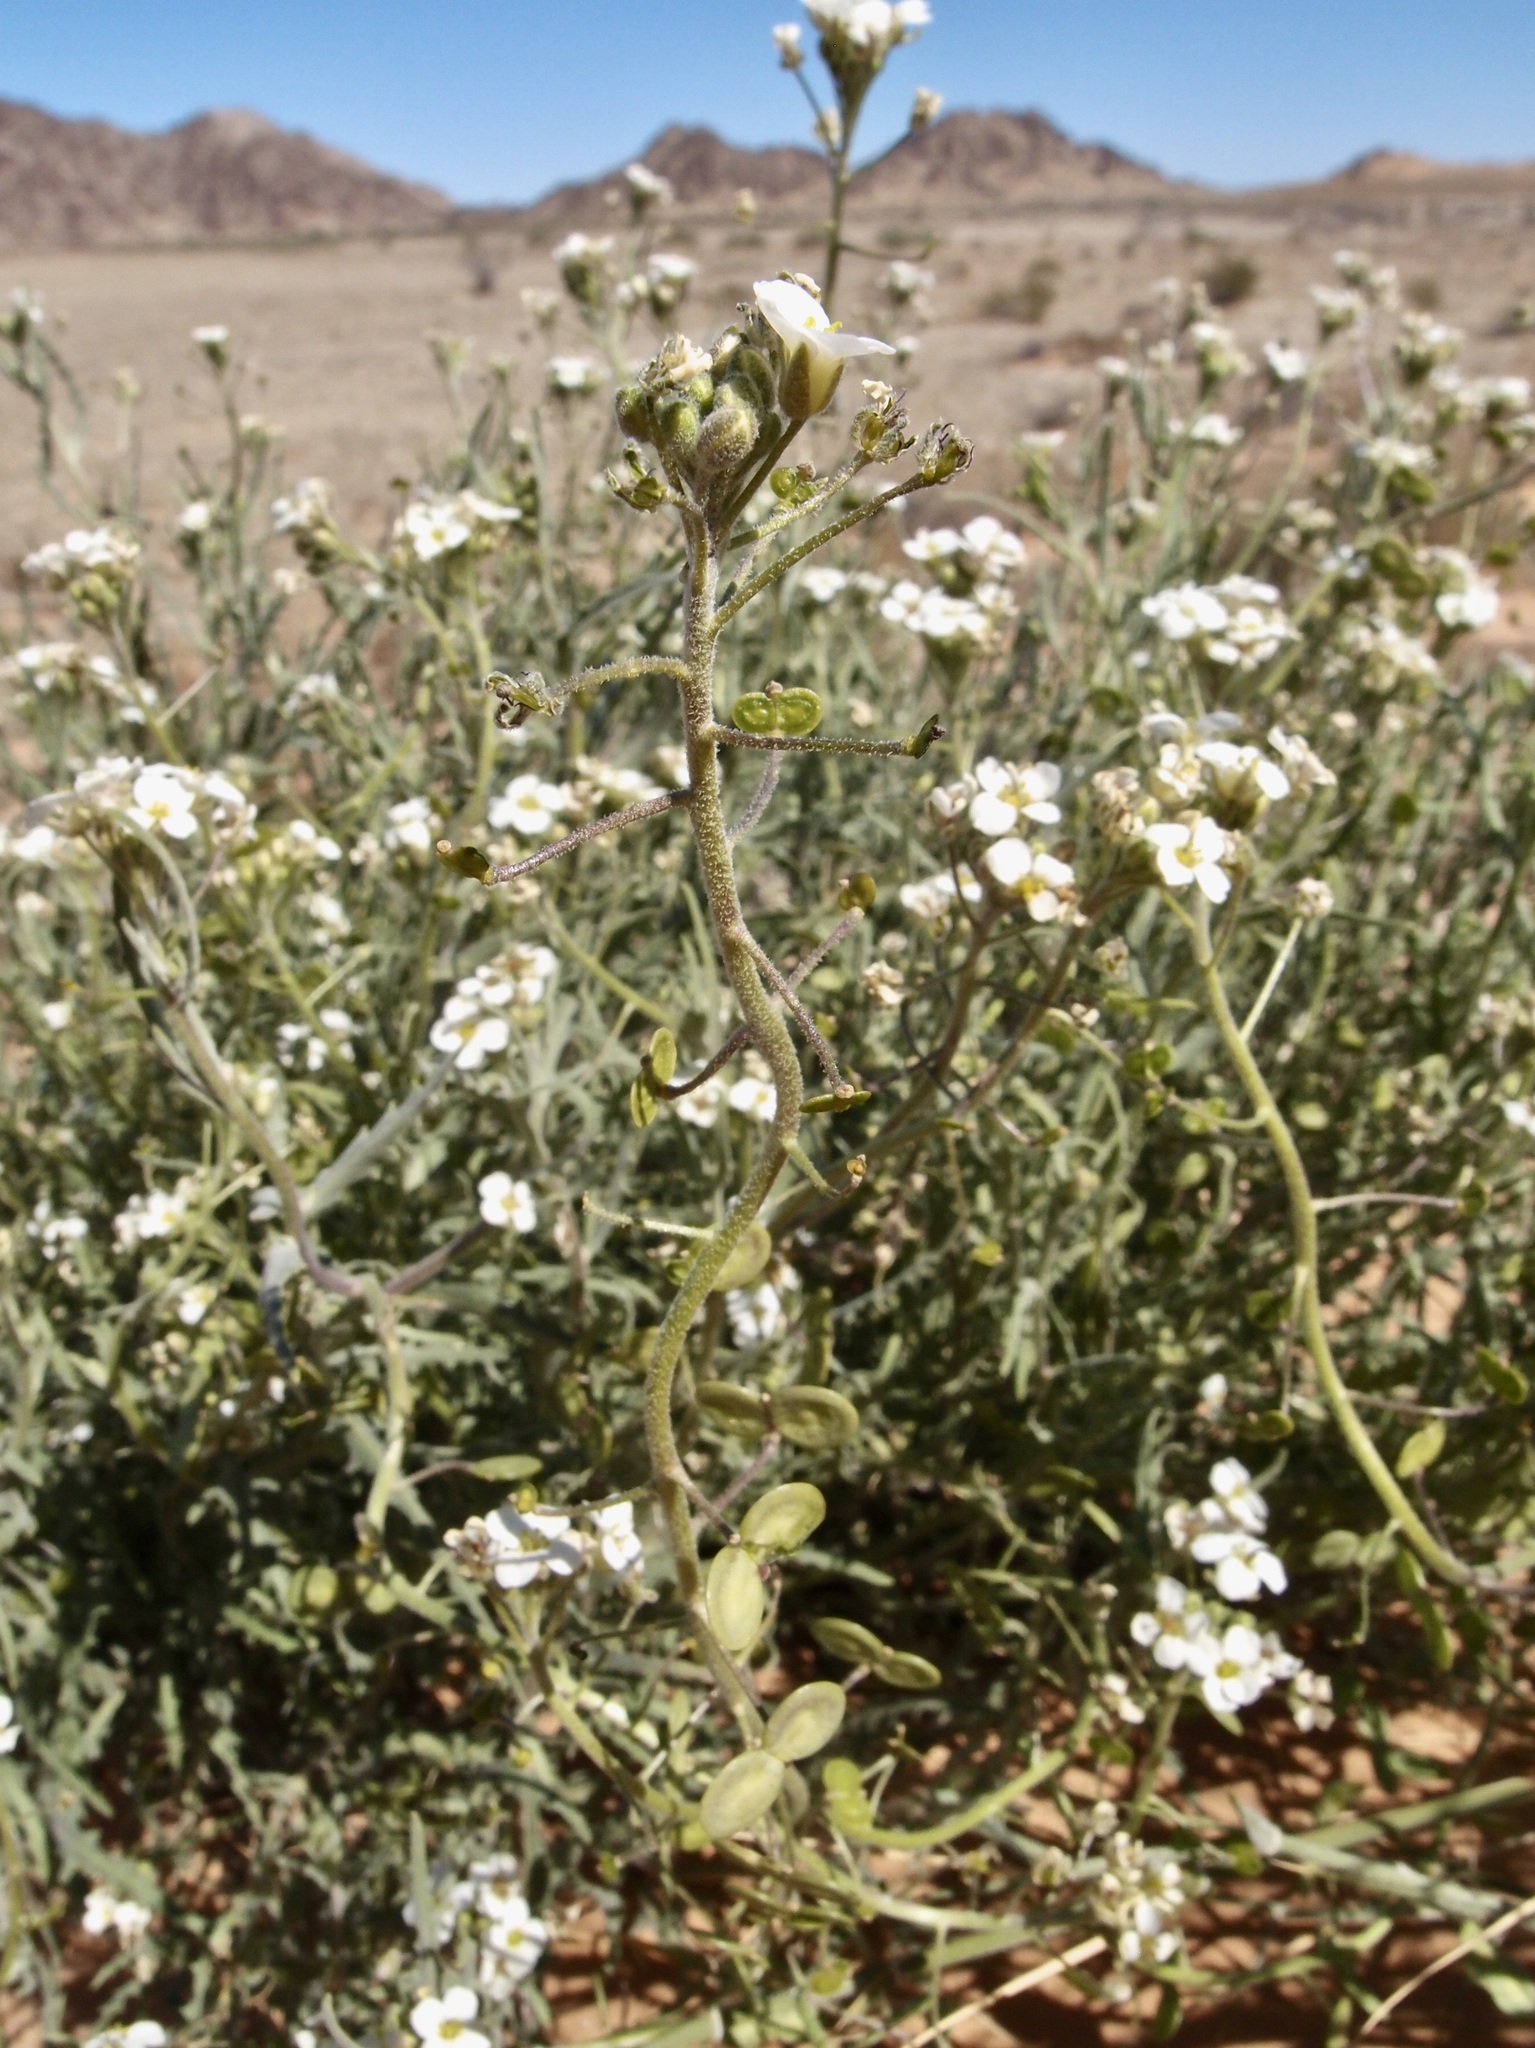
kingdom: Plantae
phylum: Tracheophyta
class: Magnoliopsida
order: Brassicales
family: Brassicaceae
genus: Dimorphocarpa
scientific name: Dimorphocarpa pinnatifida
